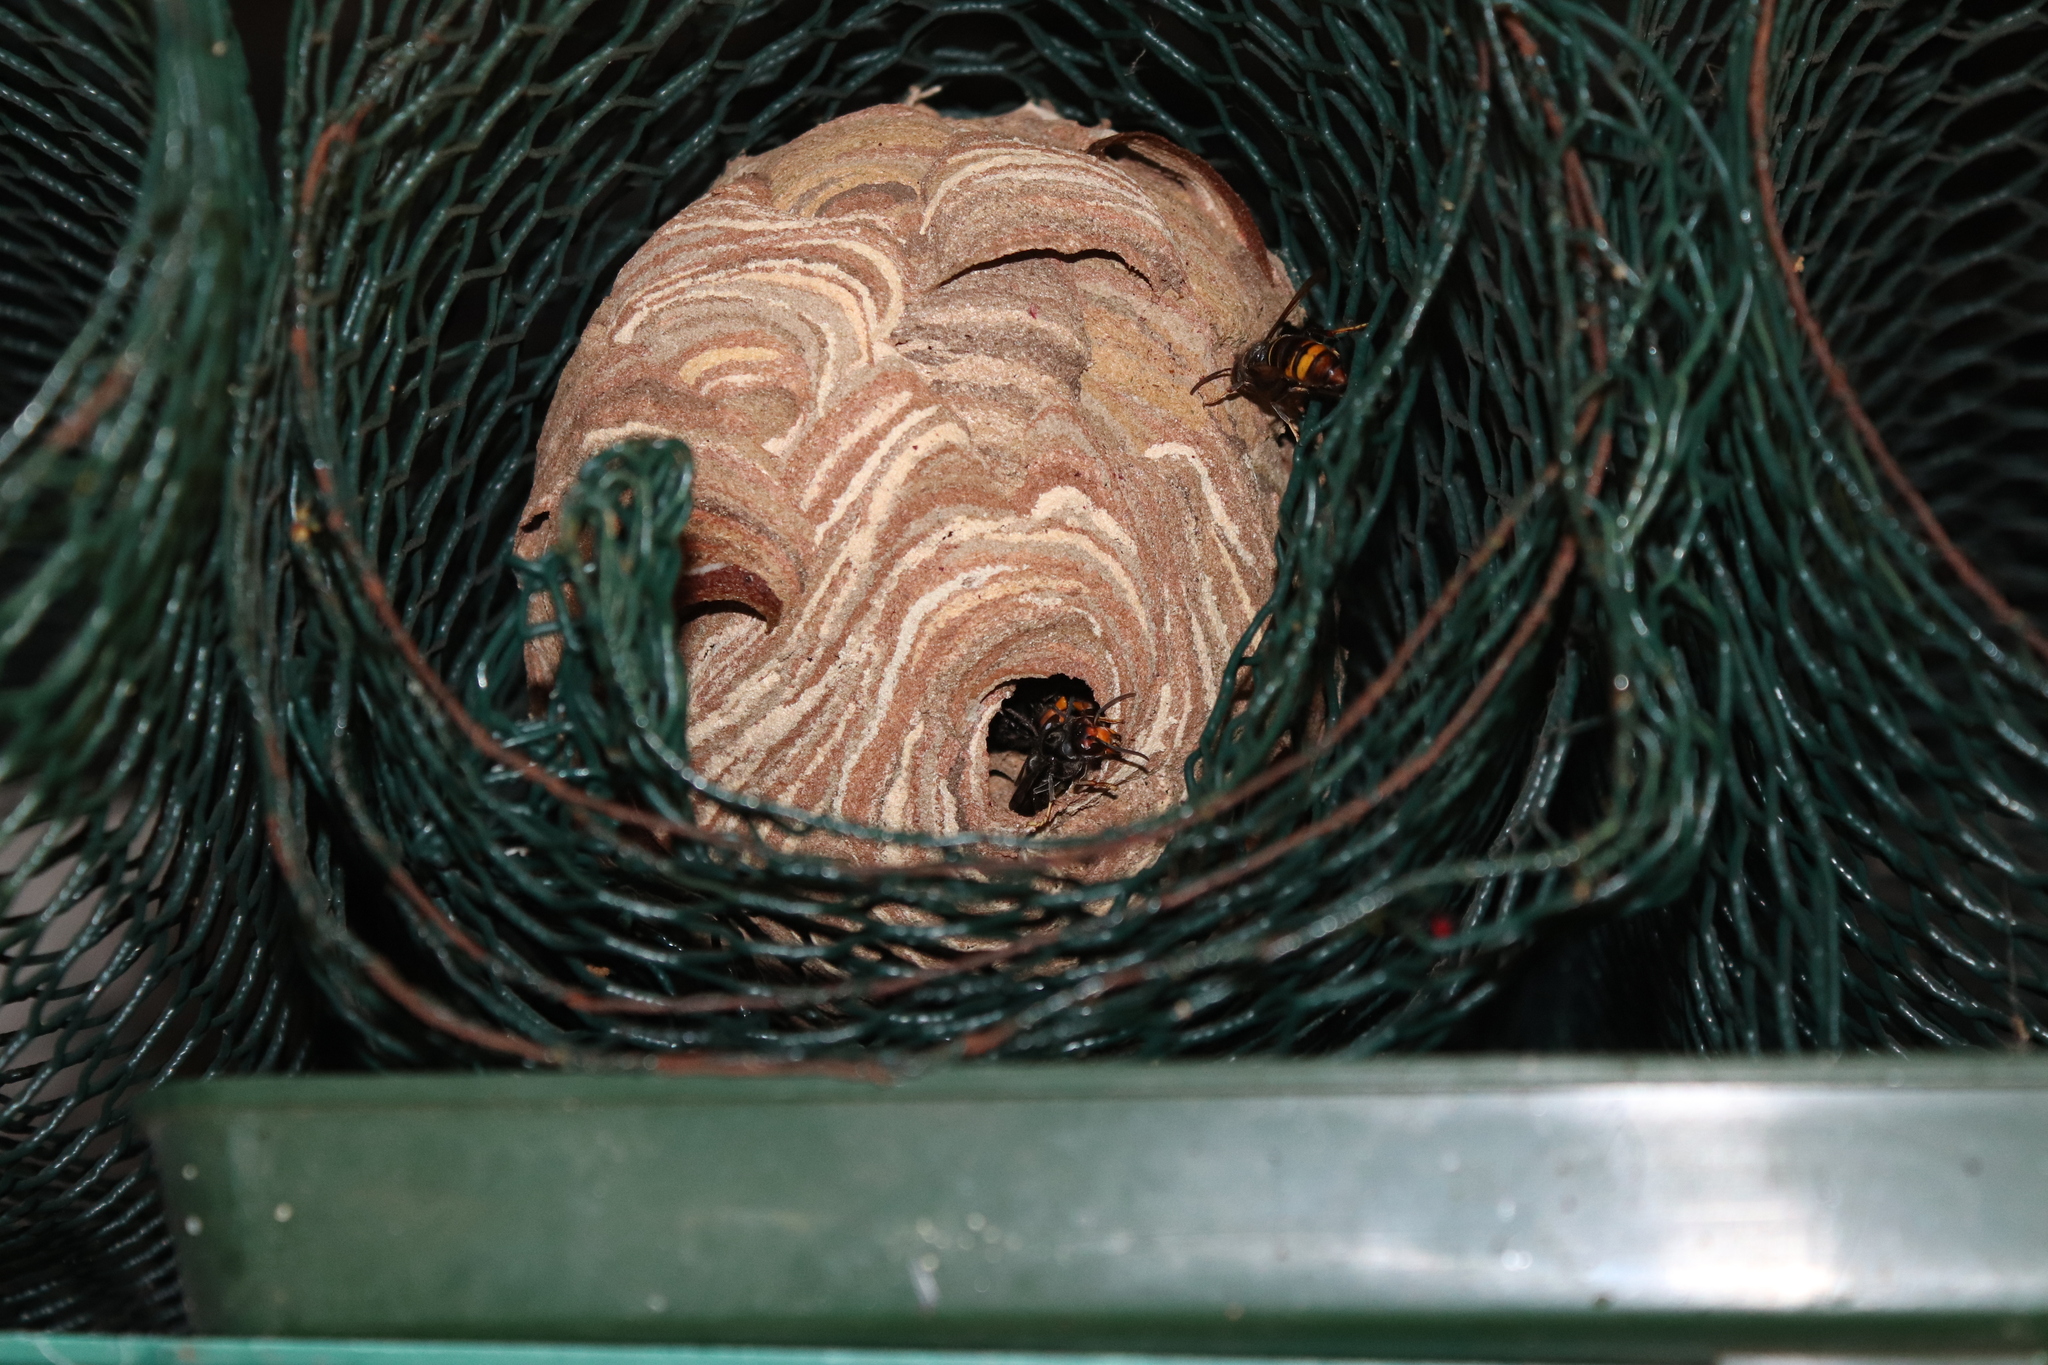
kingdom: Animalia
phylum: Arthropoda
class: Insecta
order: Hymenoptera
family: Vespidae
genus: Vespa
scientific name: Vespa velutina
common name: Asian hornet
